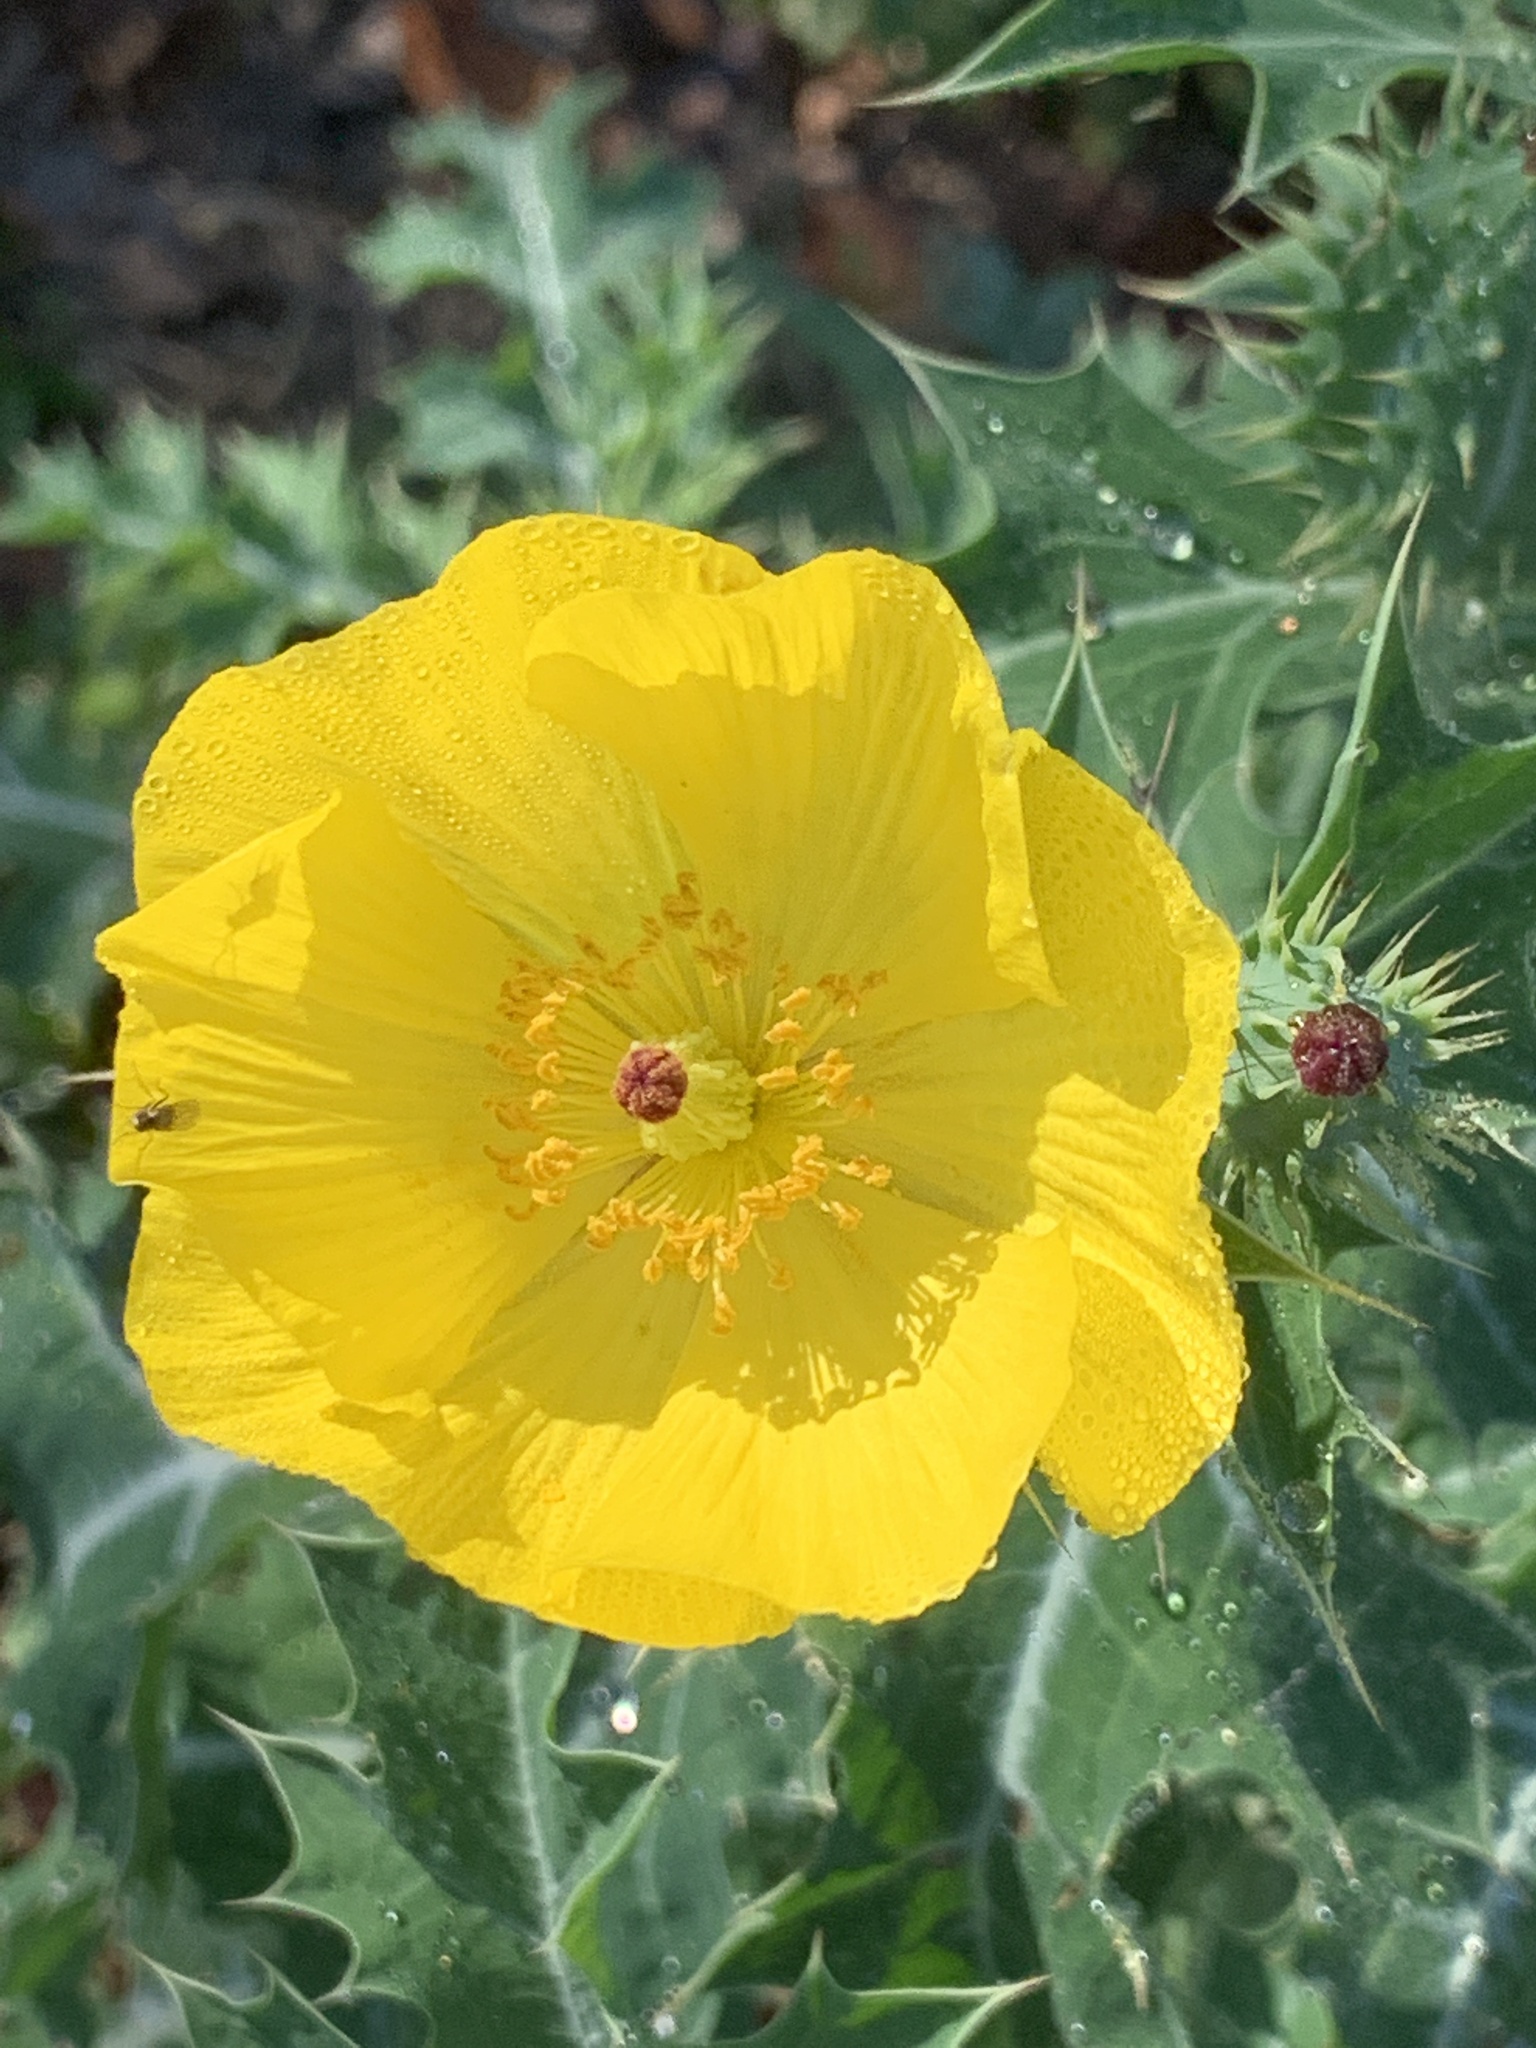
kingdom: Plantae
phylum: Tracheophyta
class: Magnoliopsida
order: Ranunculales
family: Papaveraceae
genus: Argemone
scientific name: Argemone mexicana
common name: Mexican poppy
